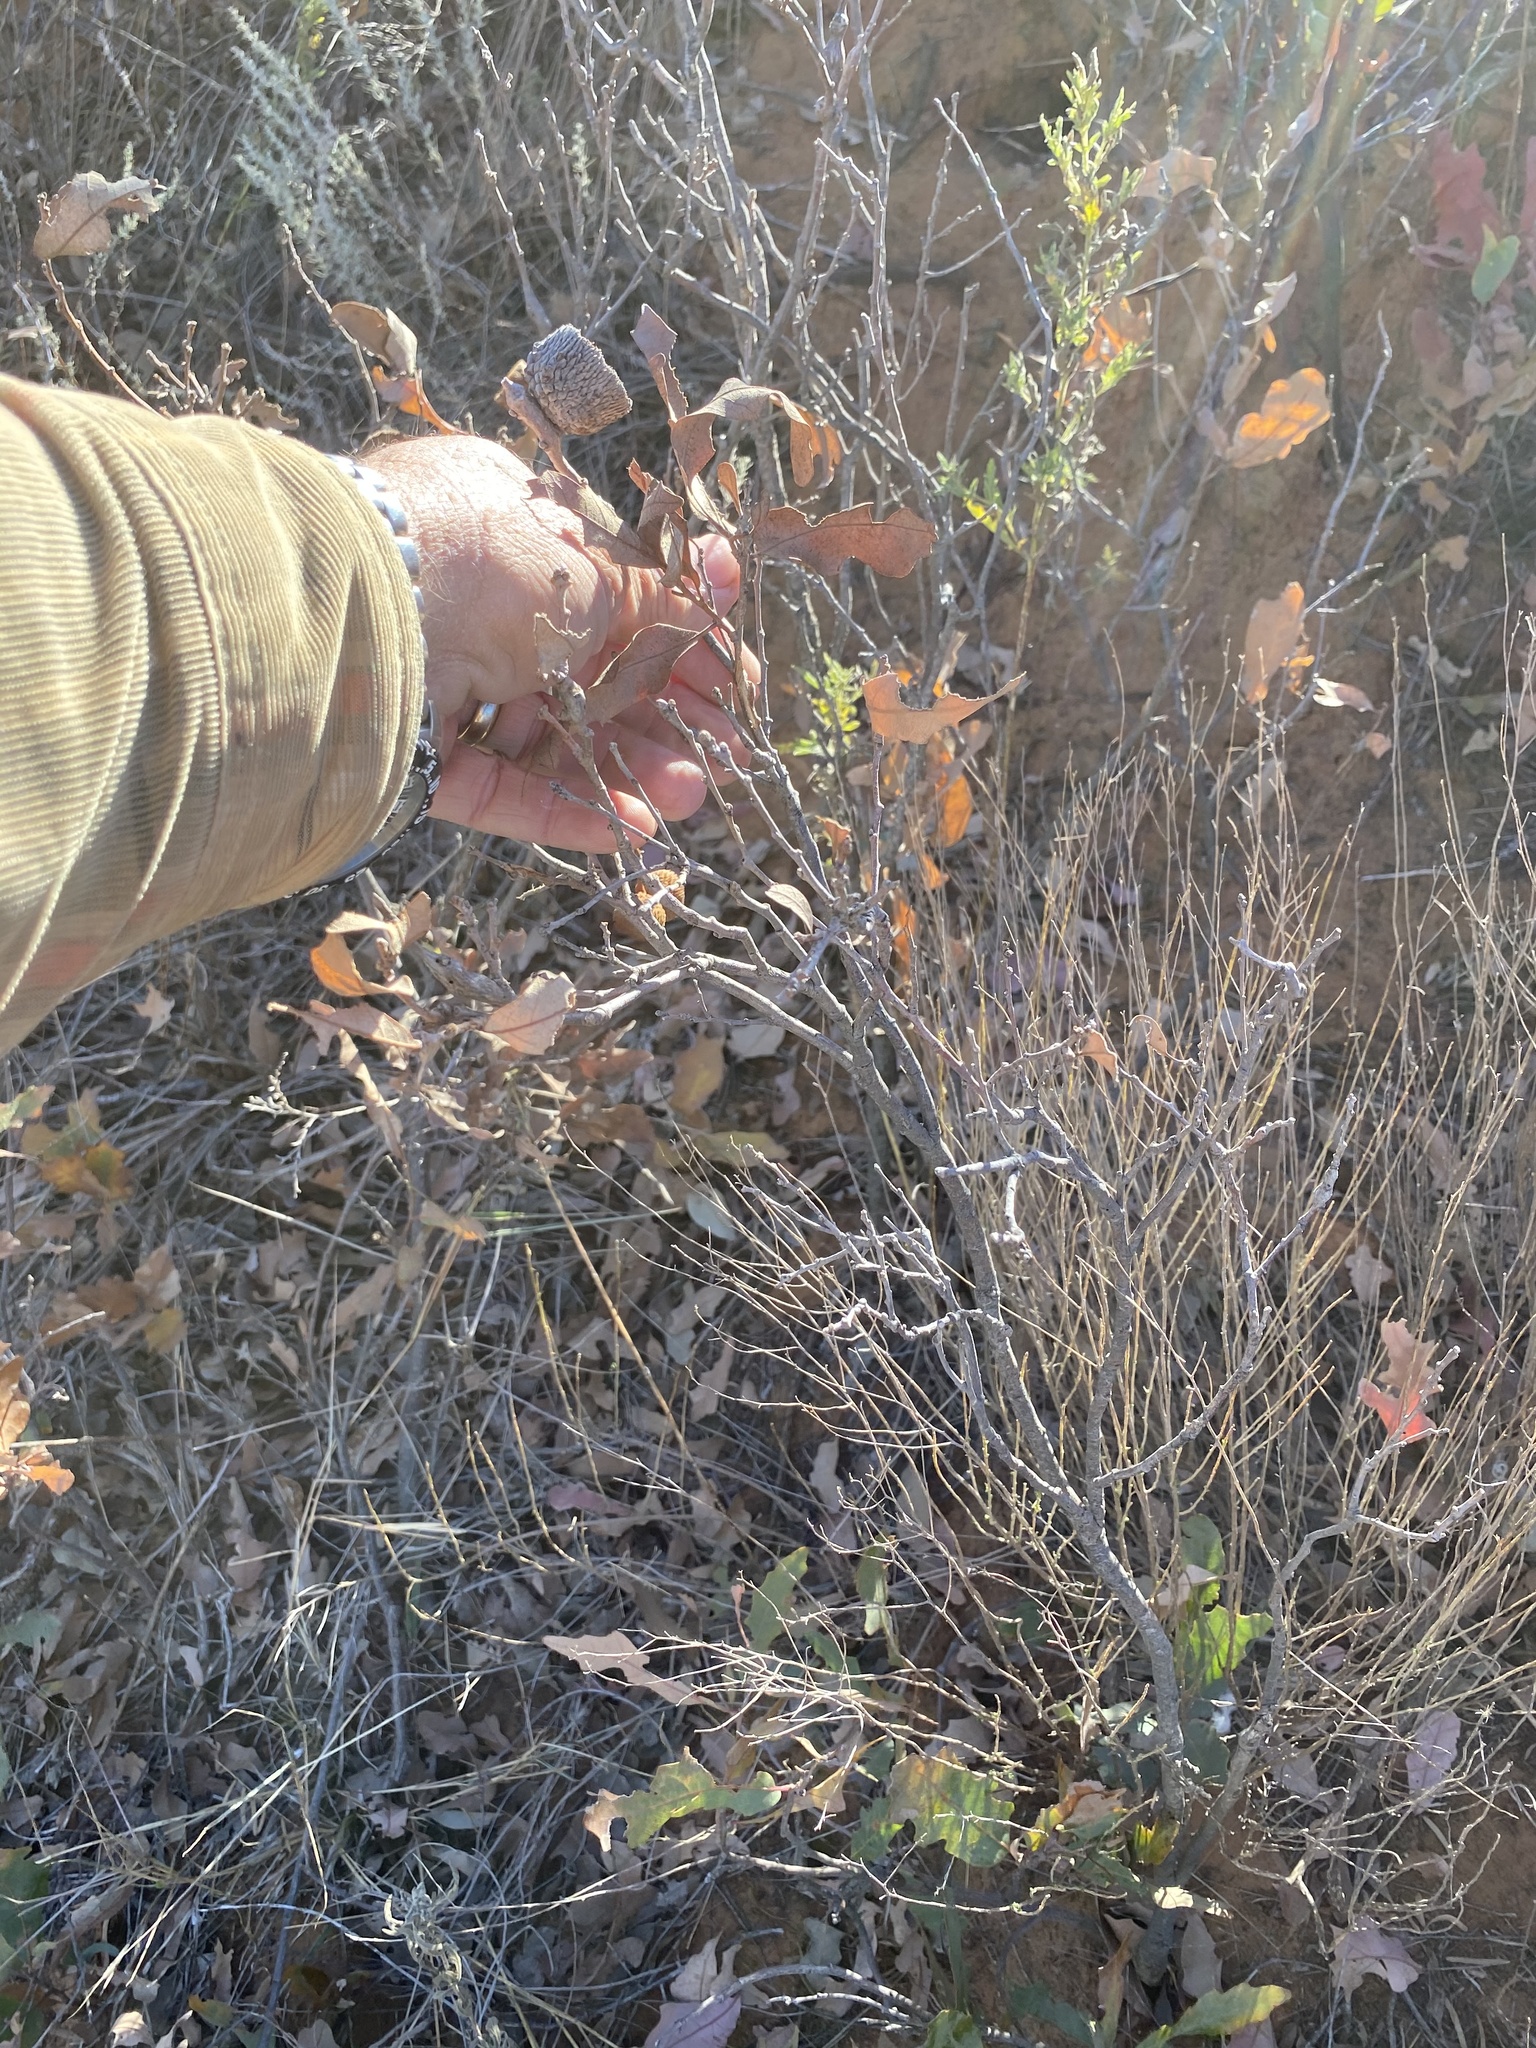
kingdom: Plantae
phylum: Tracheophyta
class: Magnoliopsida
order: Fagales
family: Fagaceae
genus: Quercus
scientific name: Quercus havardii
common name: Shinnery oak
